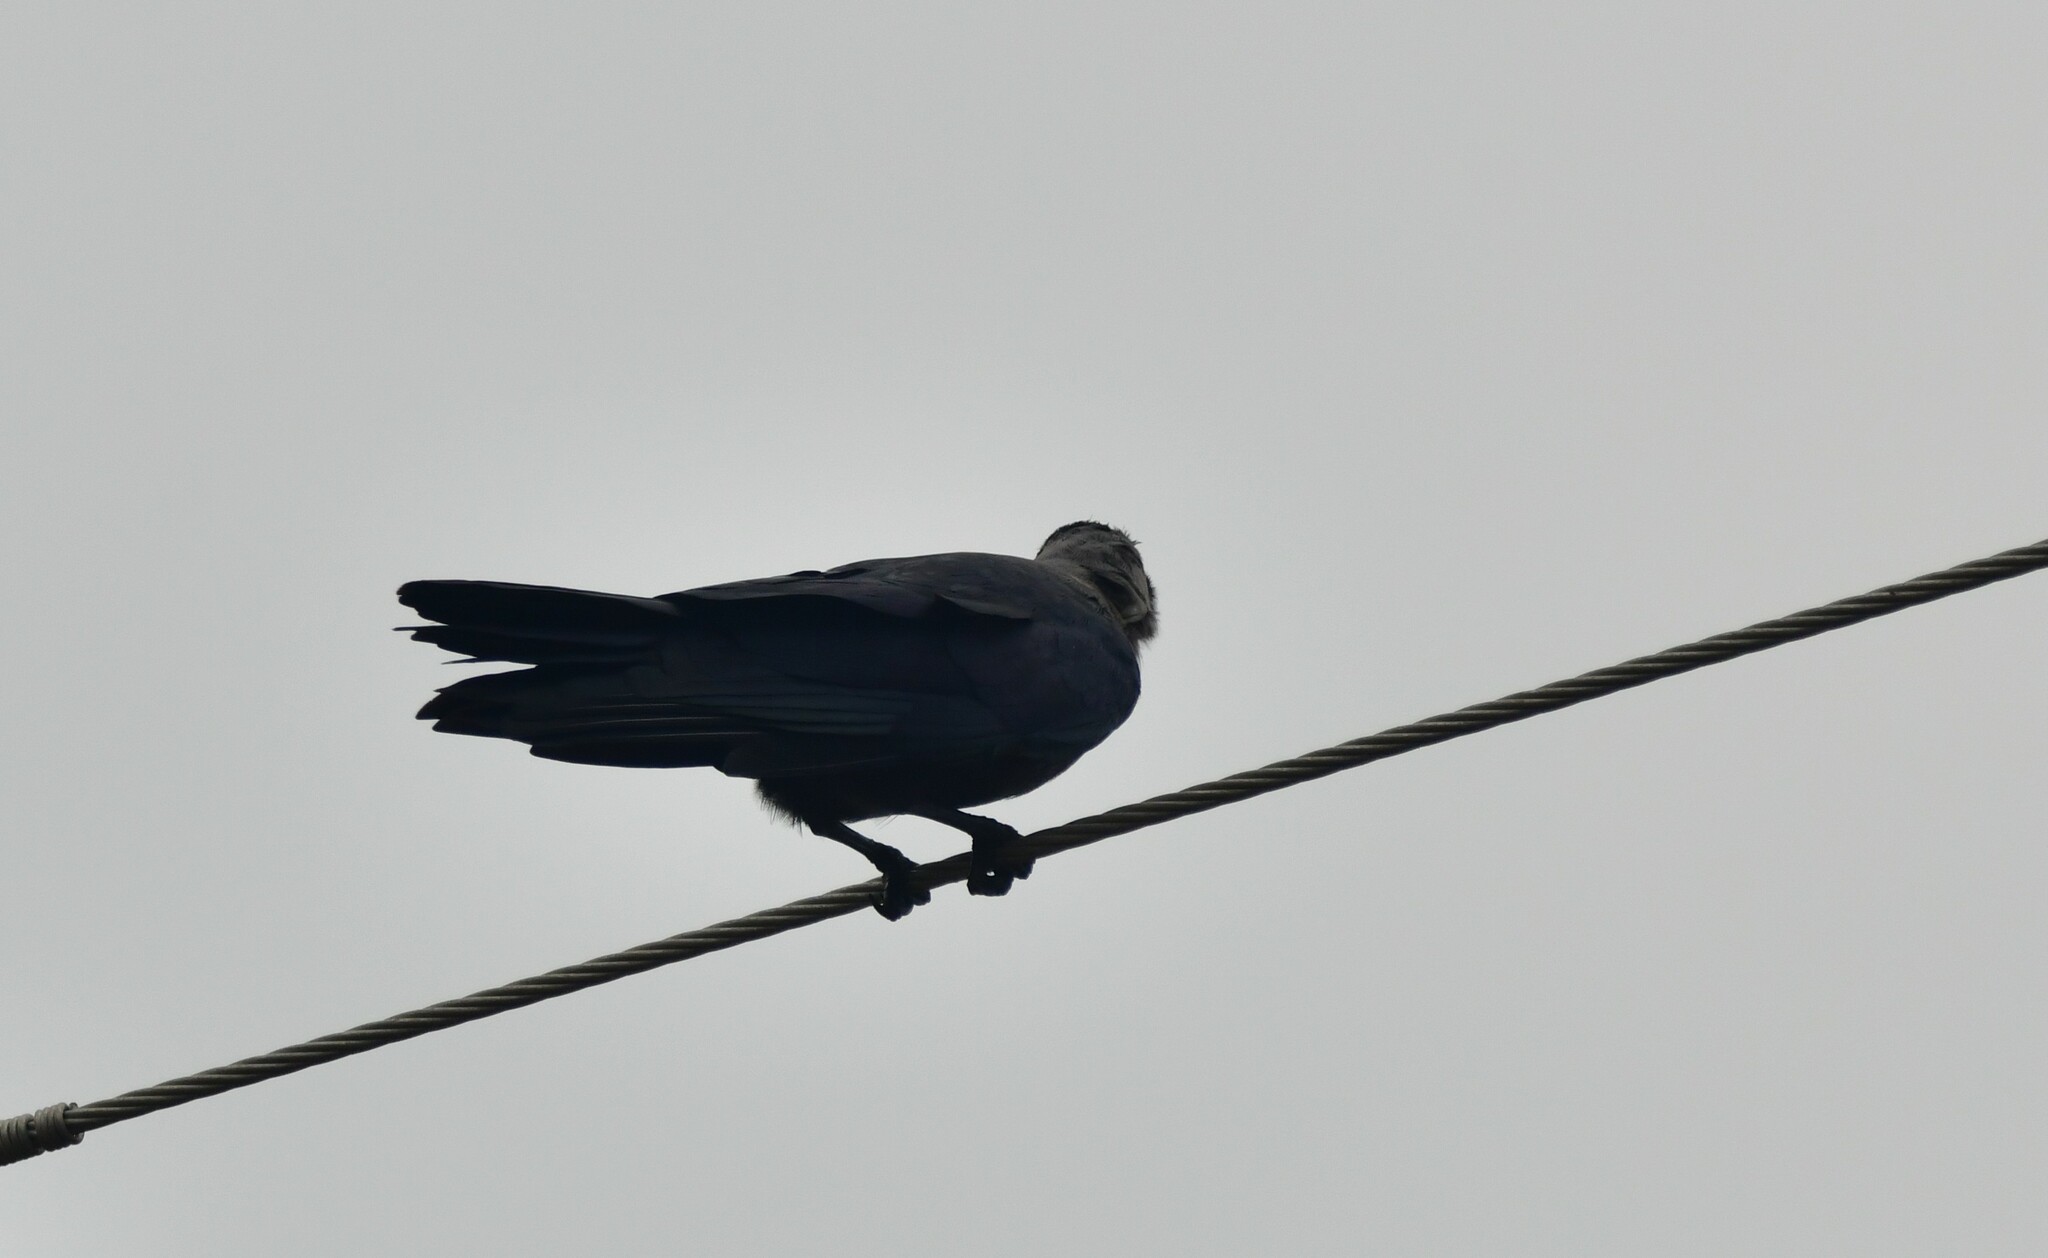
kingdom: Animalia
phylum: Chordata
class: Aves
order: Passeriformes
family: Corvidae
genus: Corvus
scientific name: Corvus splendens
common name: House crow
